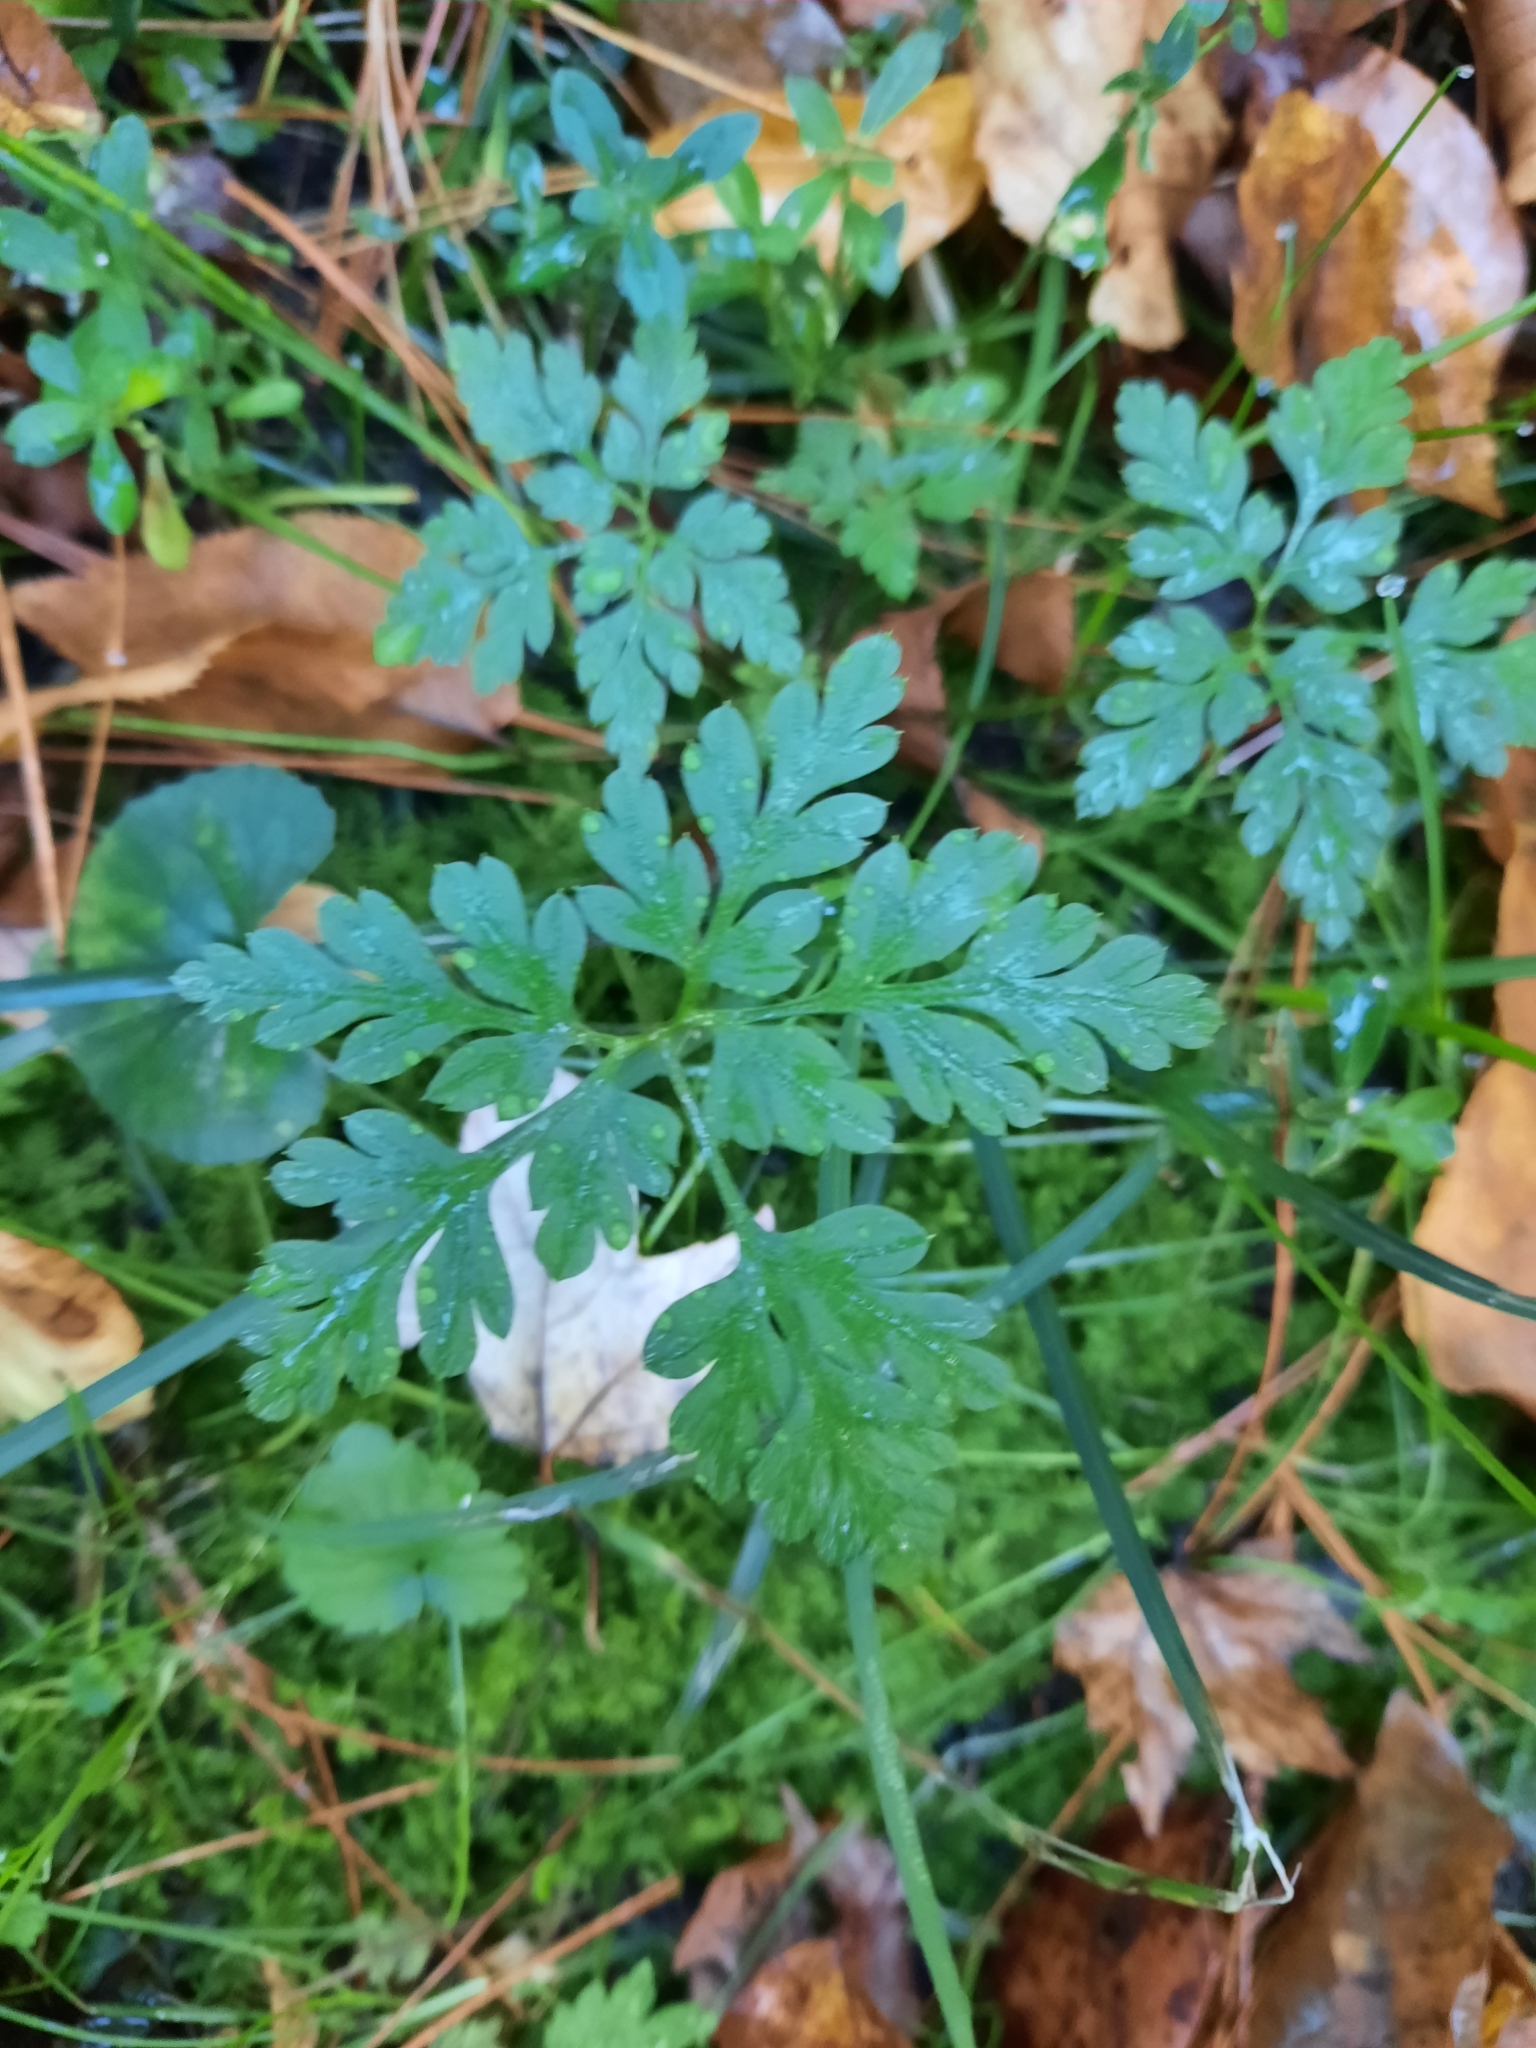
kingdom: Plantae
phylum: Tracheophyta
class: Magnoliopsida
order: Geraniales
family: Geraniaceae
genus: Geranium
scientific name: Geranium robertianum
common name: Herb-robert
